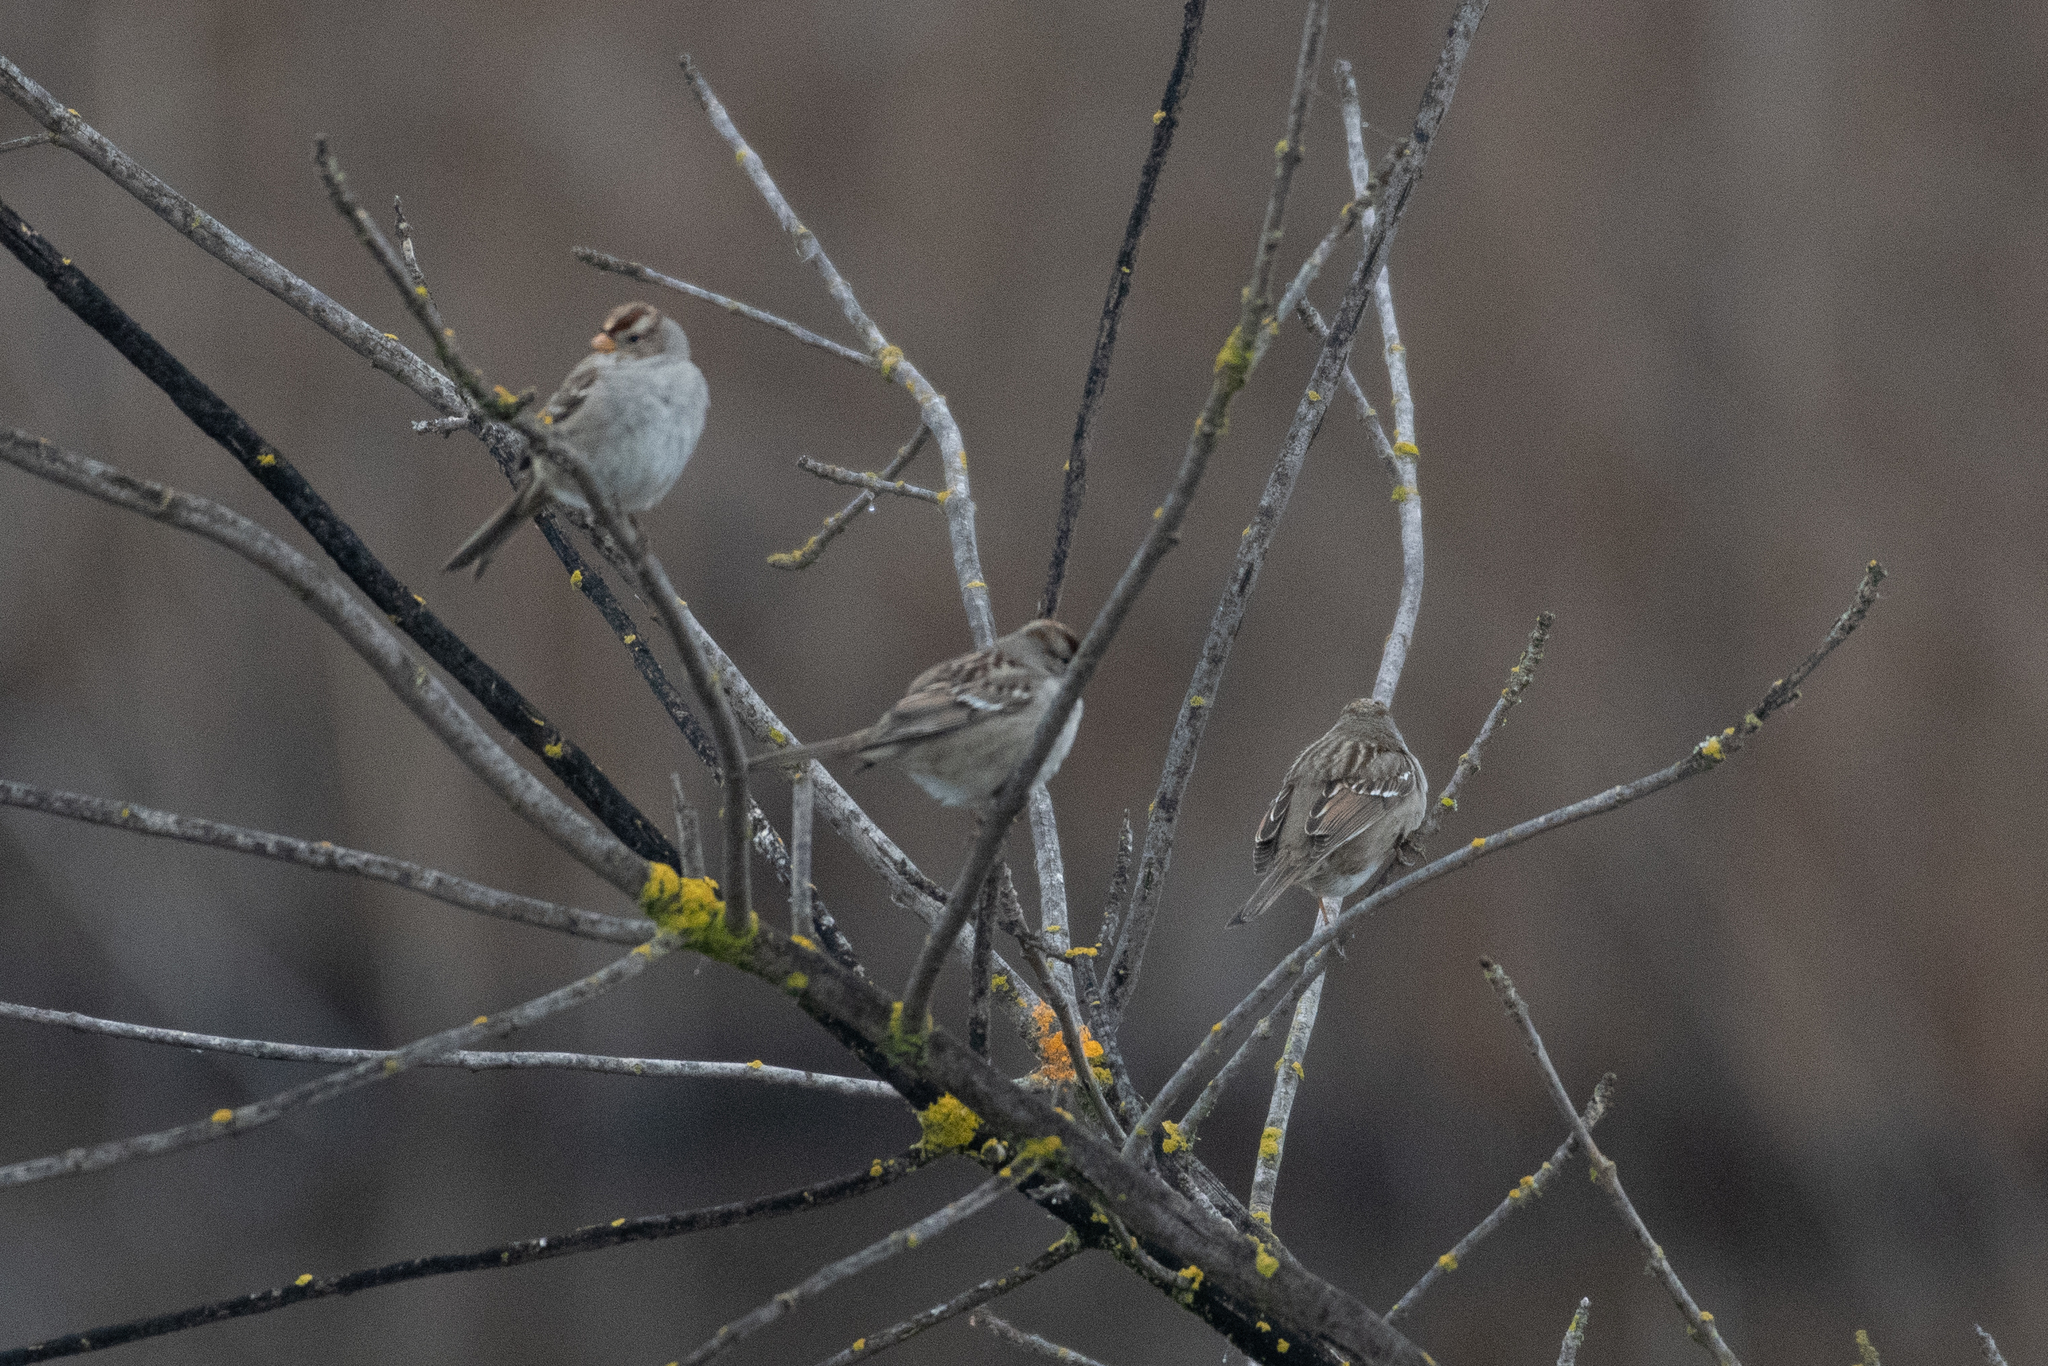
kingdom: Animalia
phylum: Chordata
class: Aves
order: Passeriformes
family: Passerellidae
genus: Zonotrichia
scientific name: Zonotrichia leucophrys
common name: White-crowned sparrow
